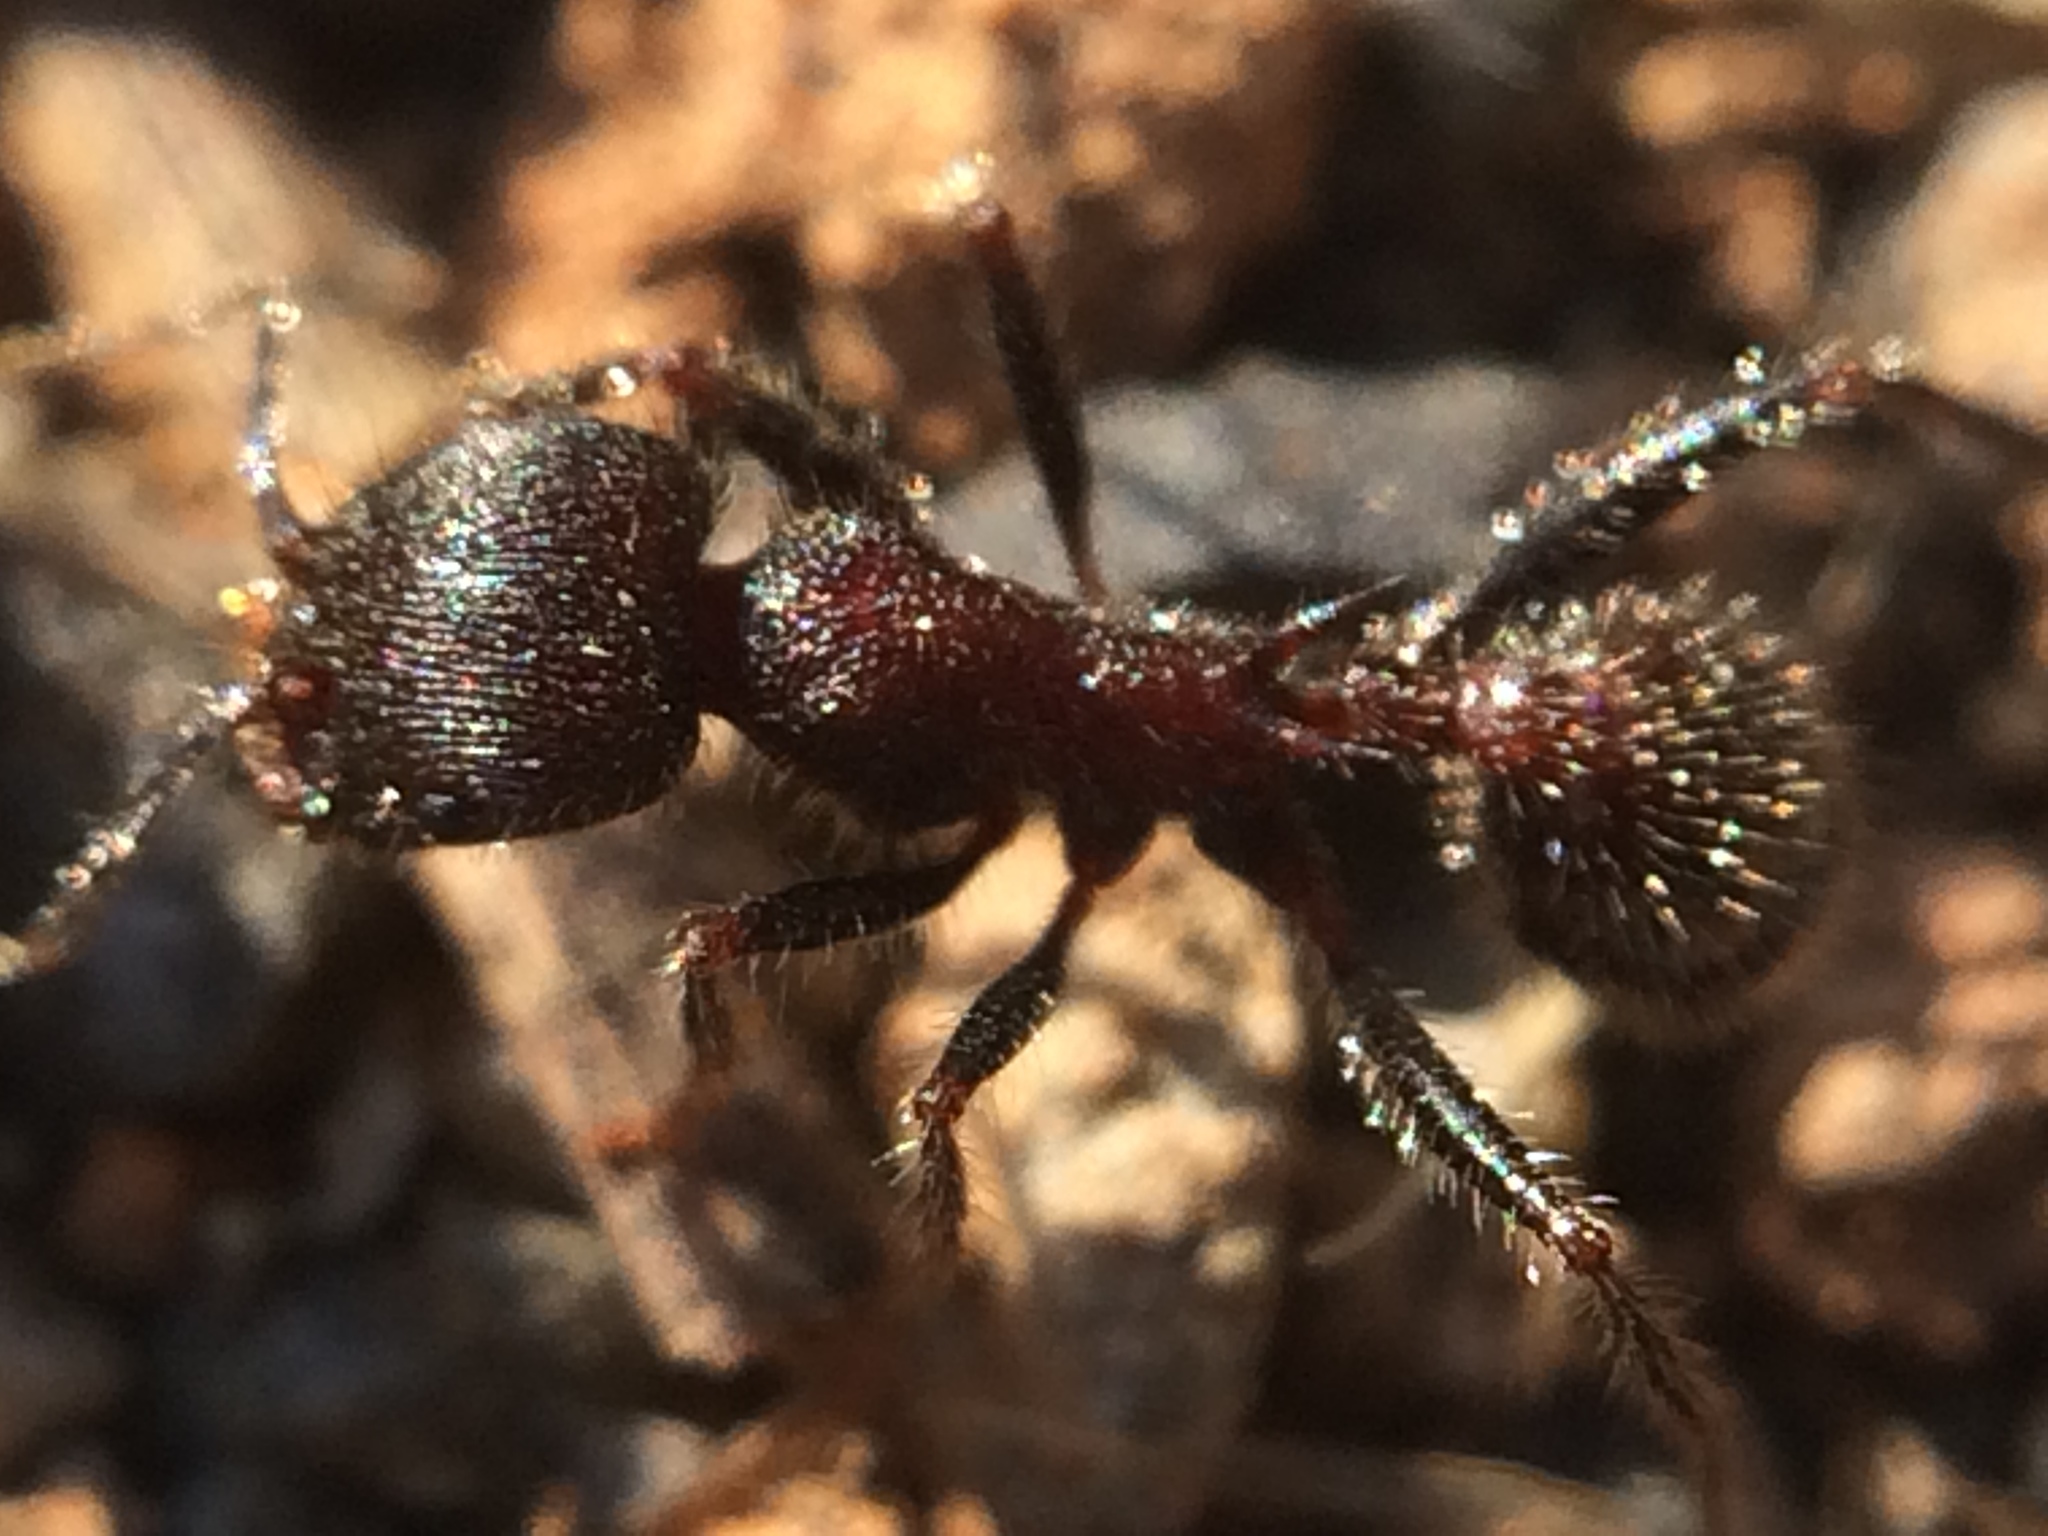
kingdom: Animalia
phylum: Arthropoda
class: Insecta
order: Hymenoptera
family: Formicidae
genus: Veromessor
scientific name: Veromessor andrei
